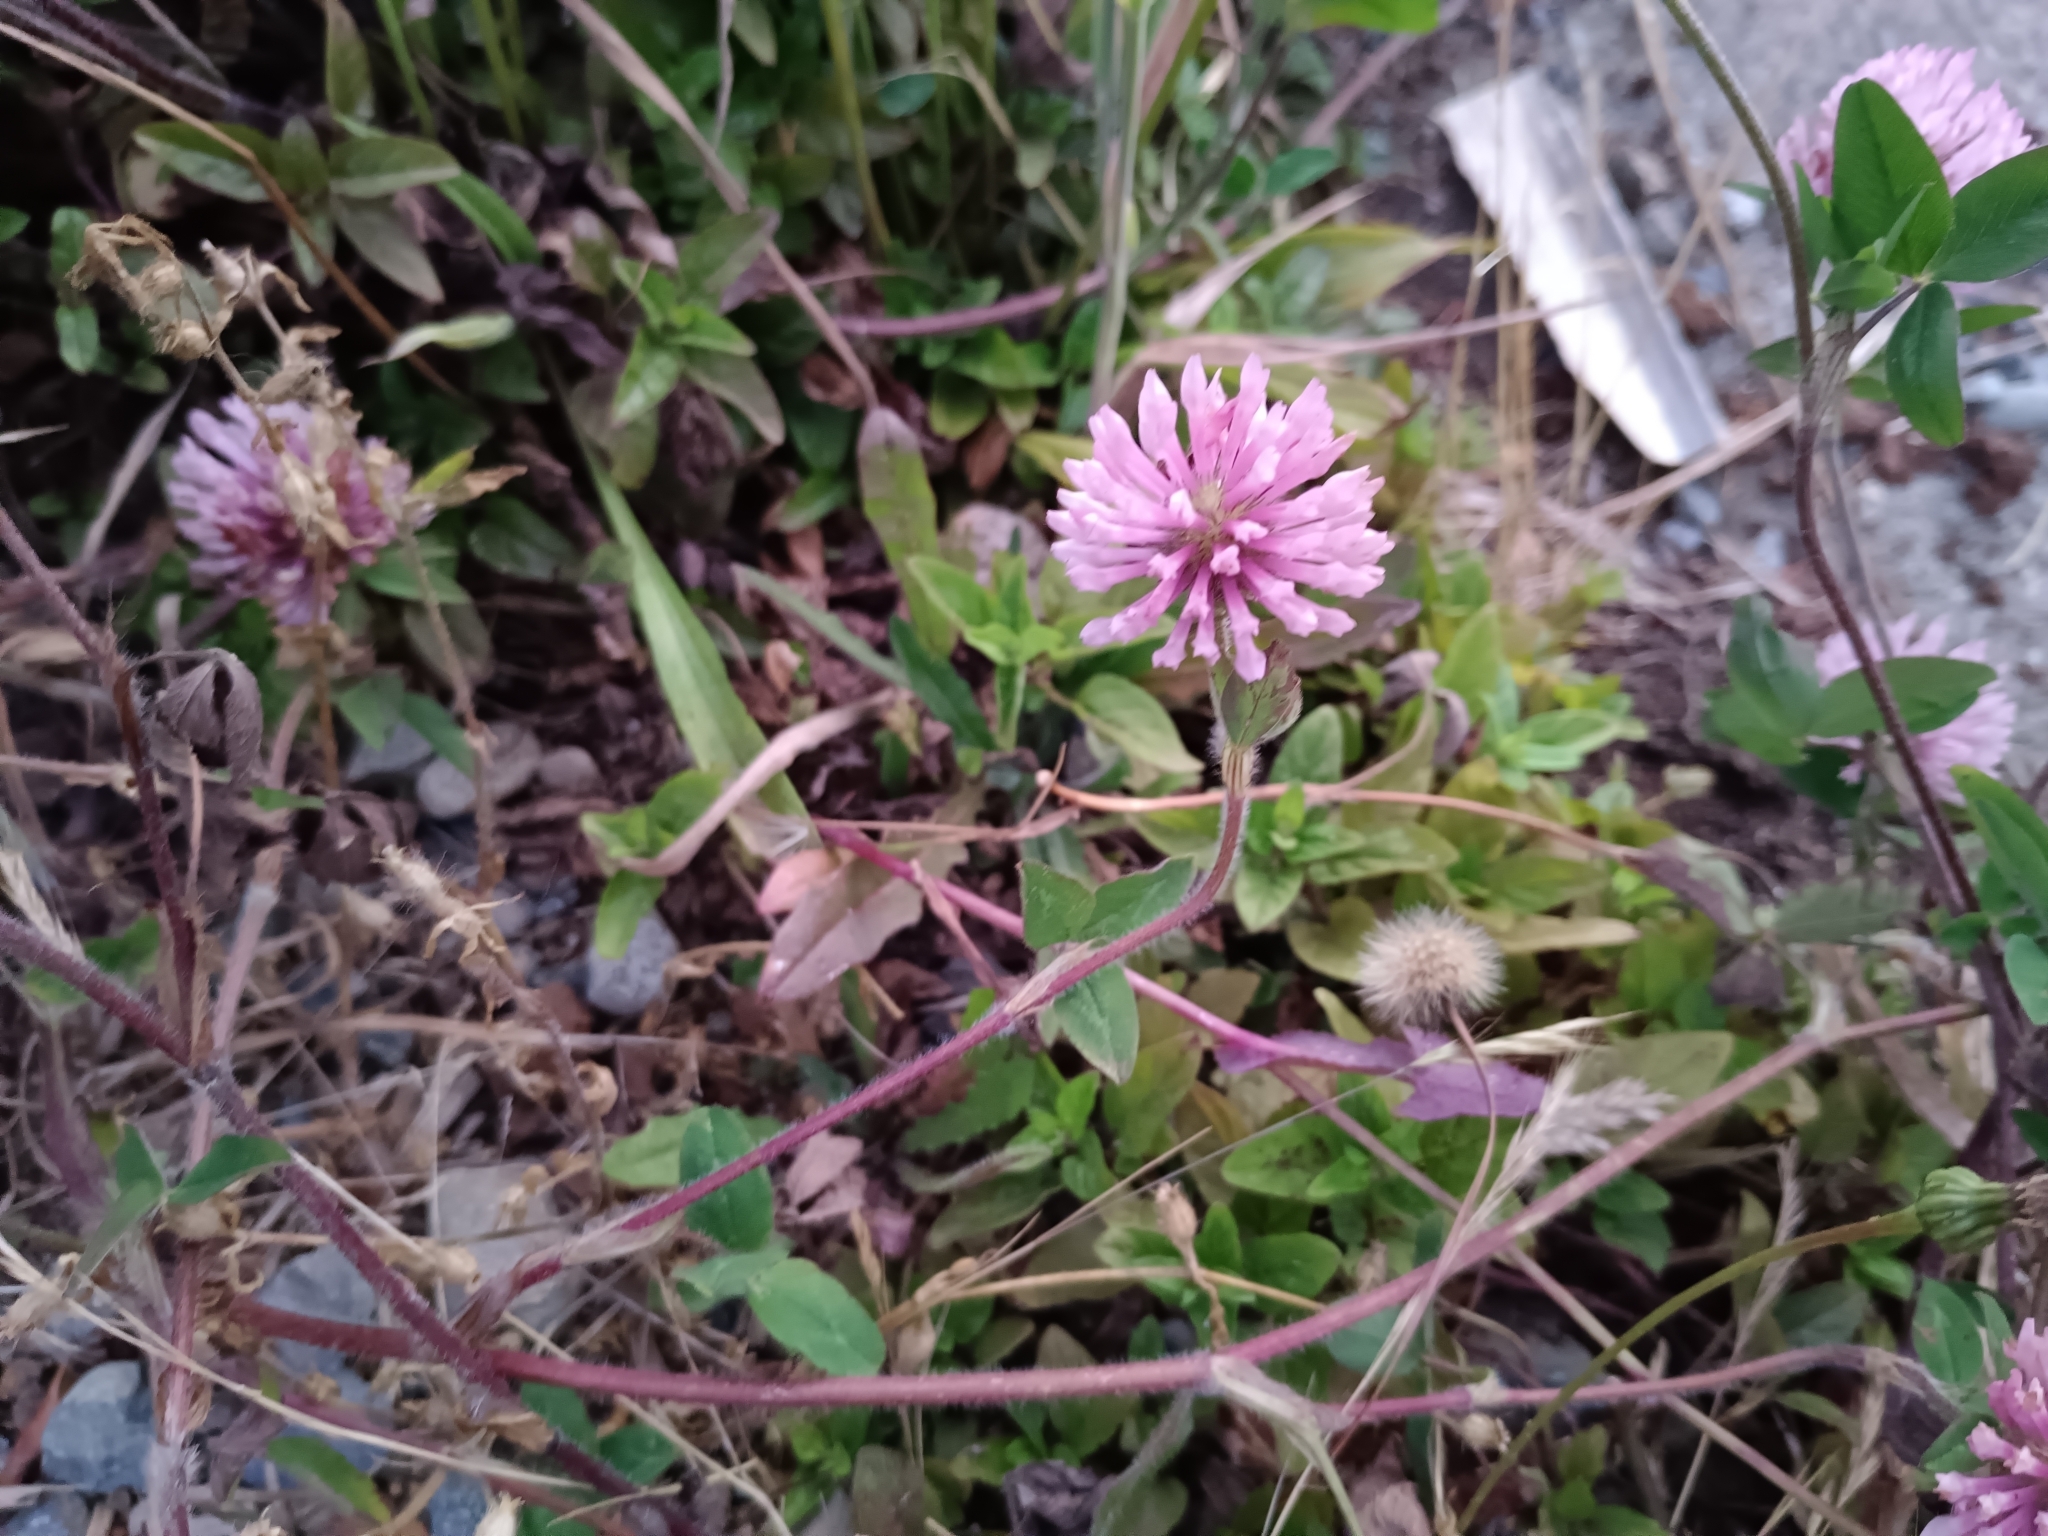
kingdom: Plantae
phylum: Tracheophyta
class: Magnoliopsida
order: Fabales
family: Fabaceae
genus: Trifolium
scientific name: Trifolium pratense
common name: Red clover
